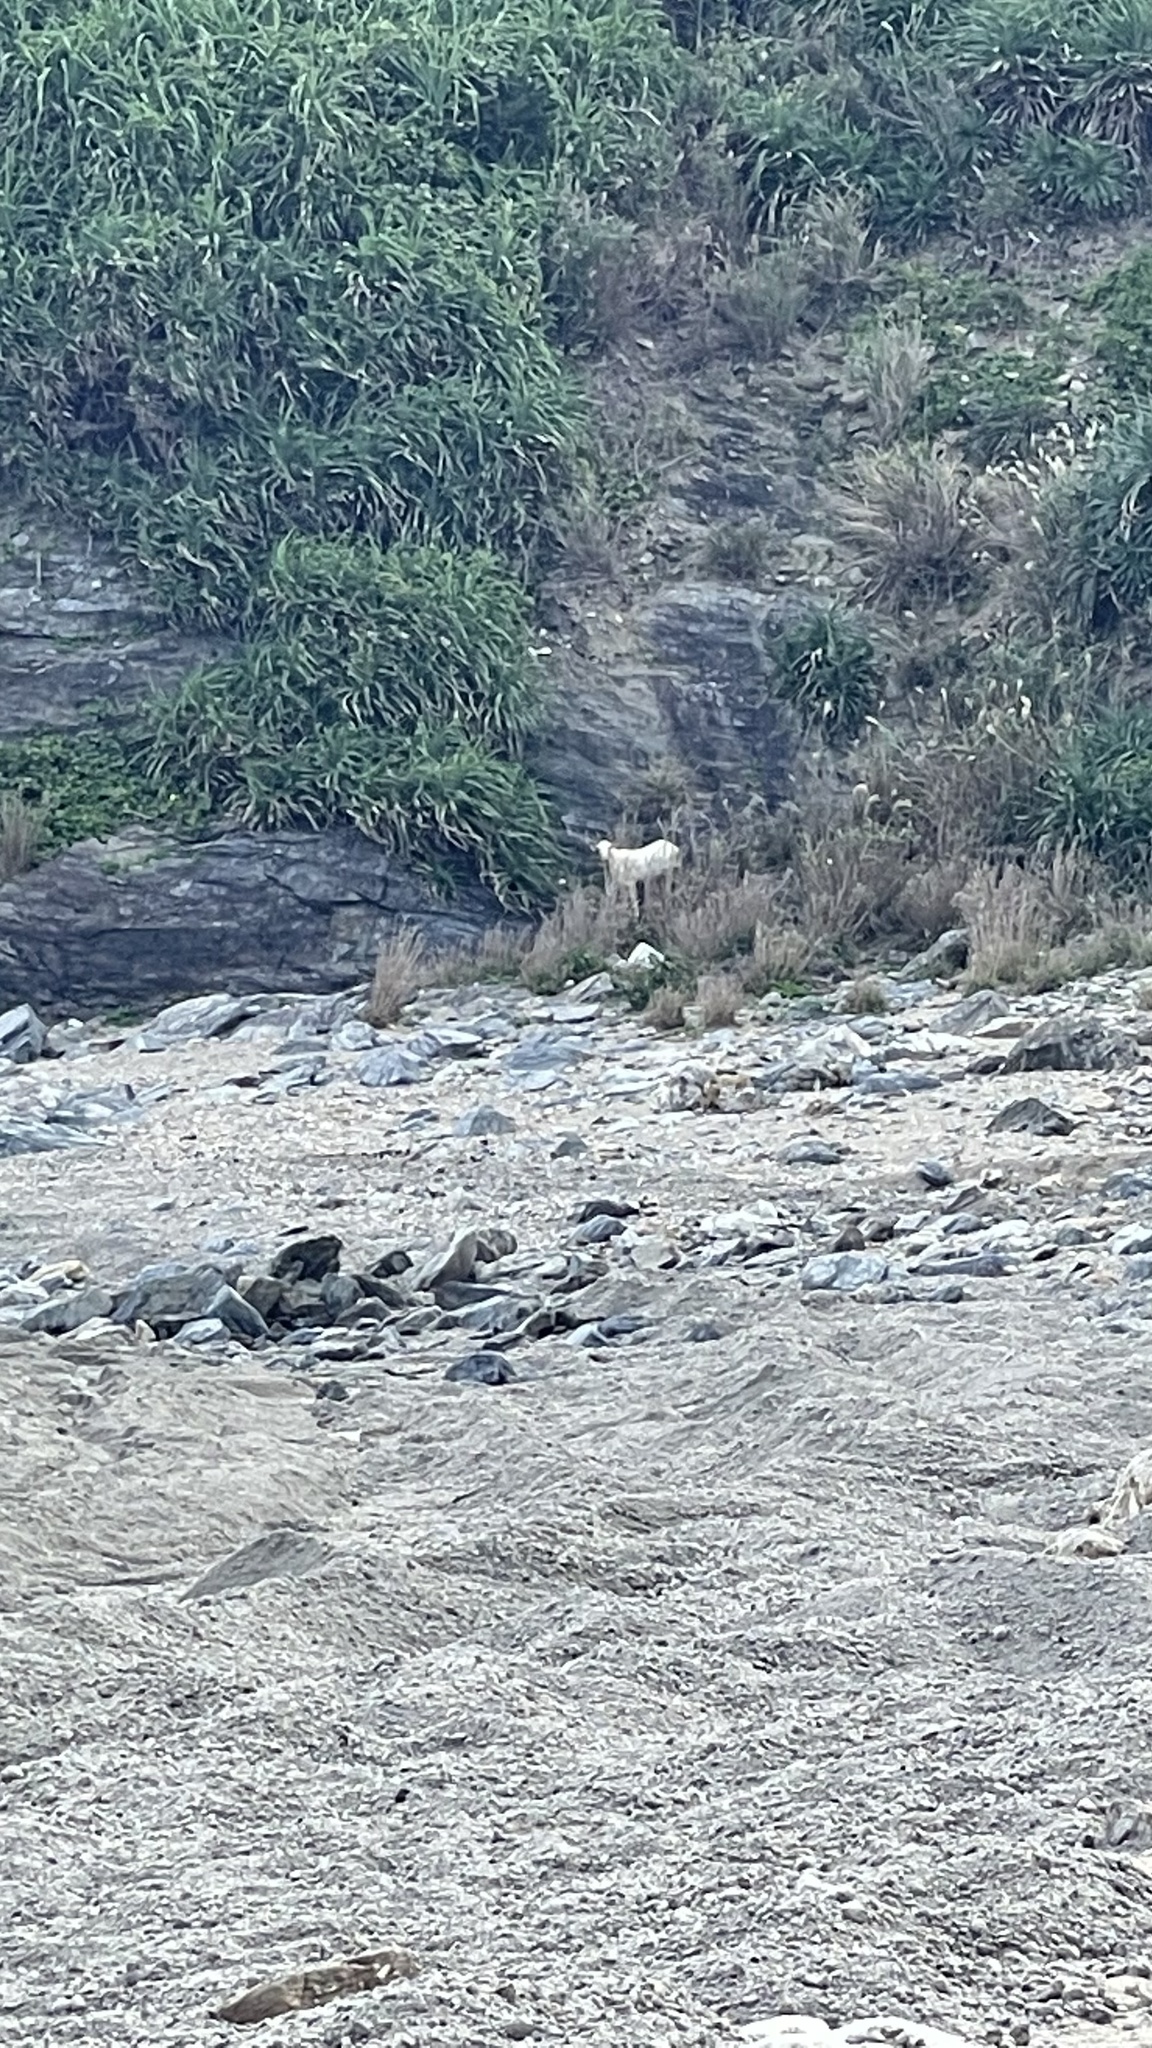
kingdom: Animalia
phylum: Chordata
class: Mammalia
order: Artiodactyla
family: Bovidae
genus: Capra
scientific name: Capra hircus
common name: Domestic goat
